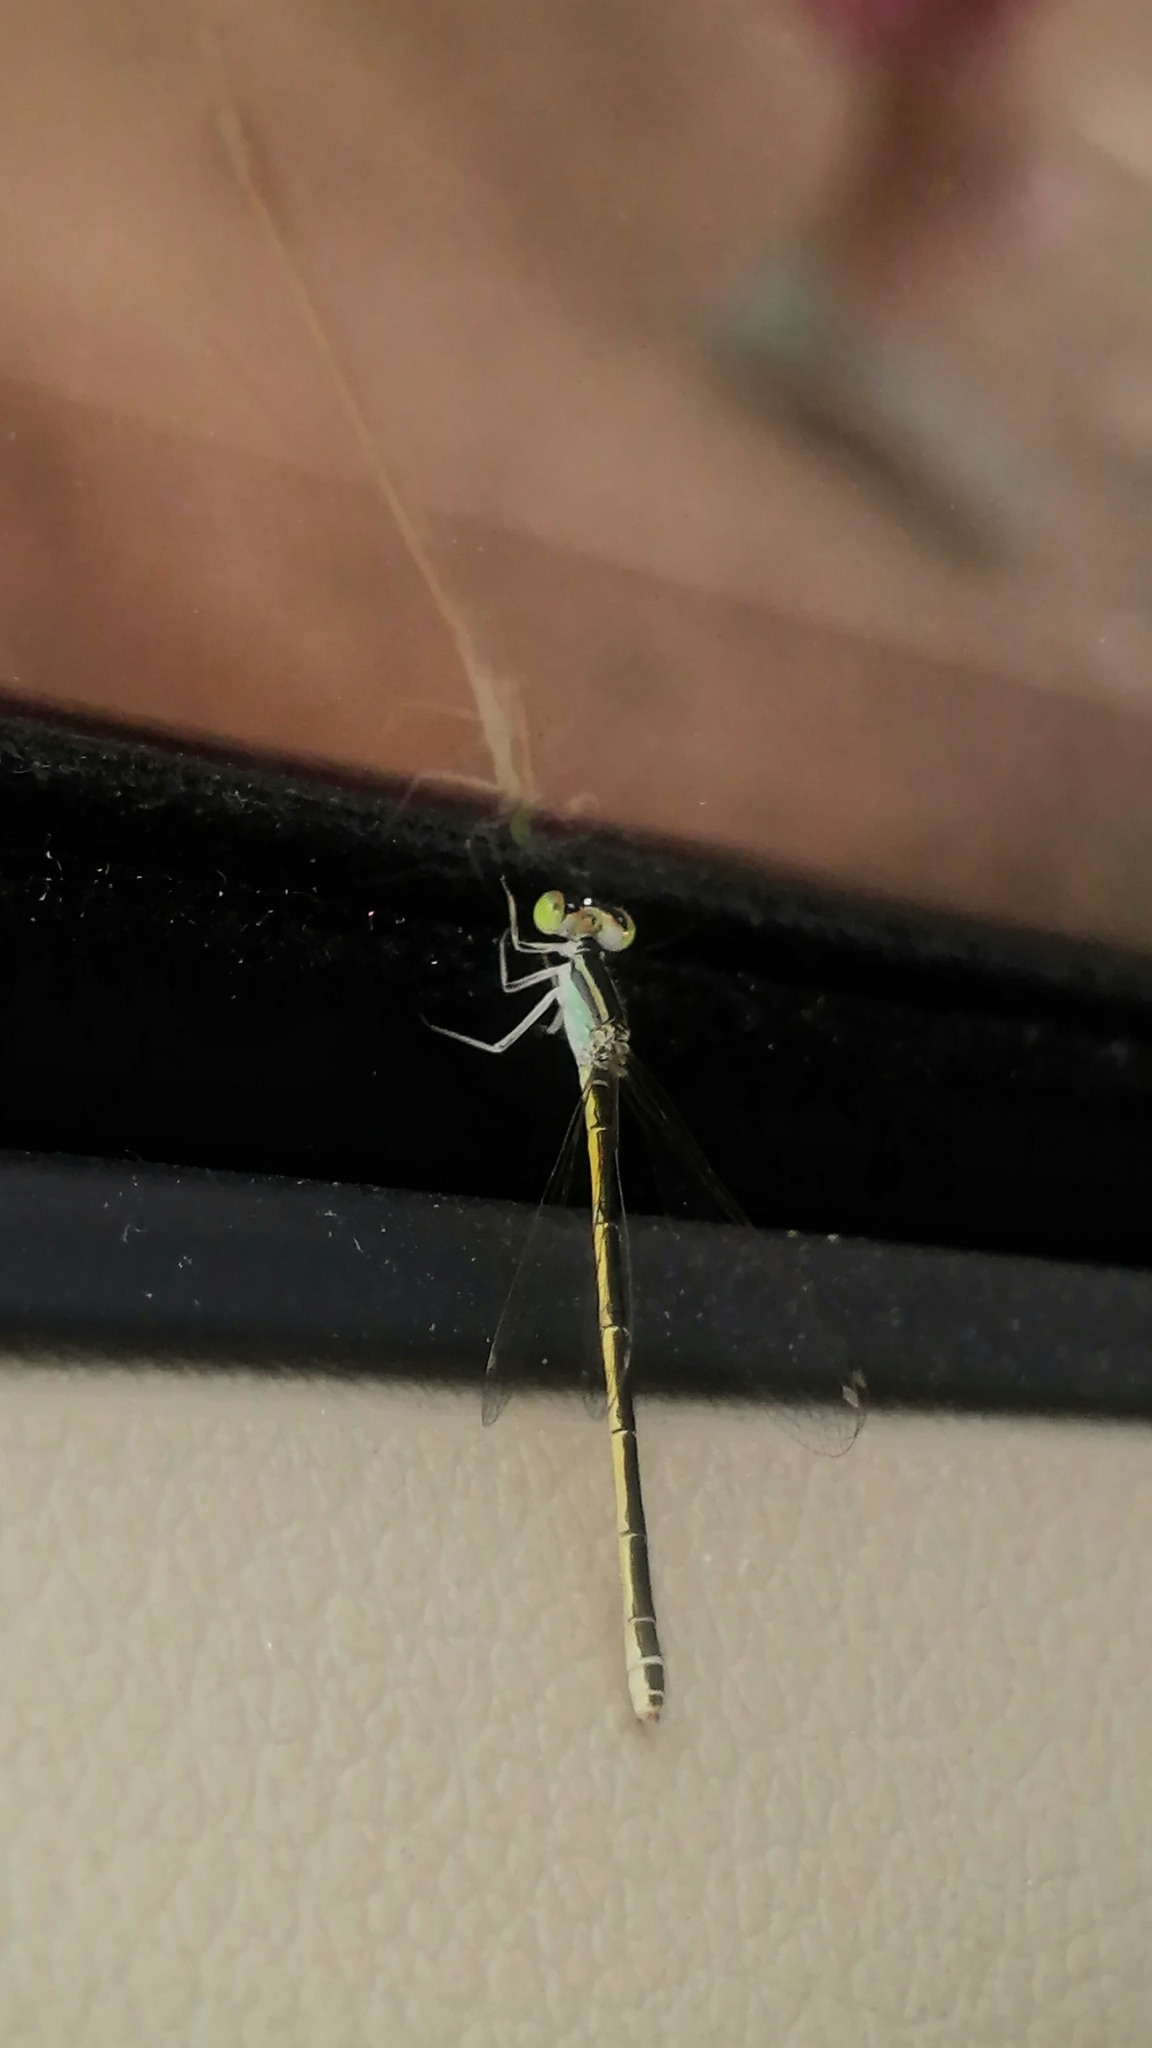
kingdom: Animalia
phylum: Arthropoda
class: Insecta
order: Odonata
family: Coenagrionidae
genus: Ischnura
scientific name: Ischnura rubilio
